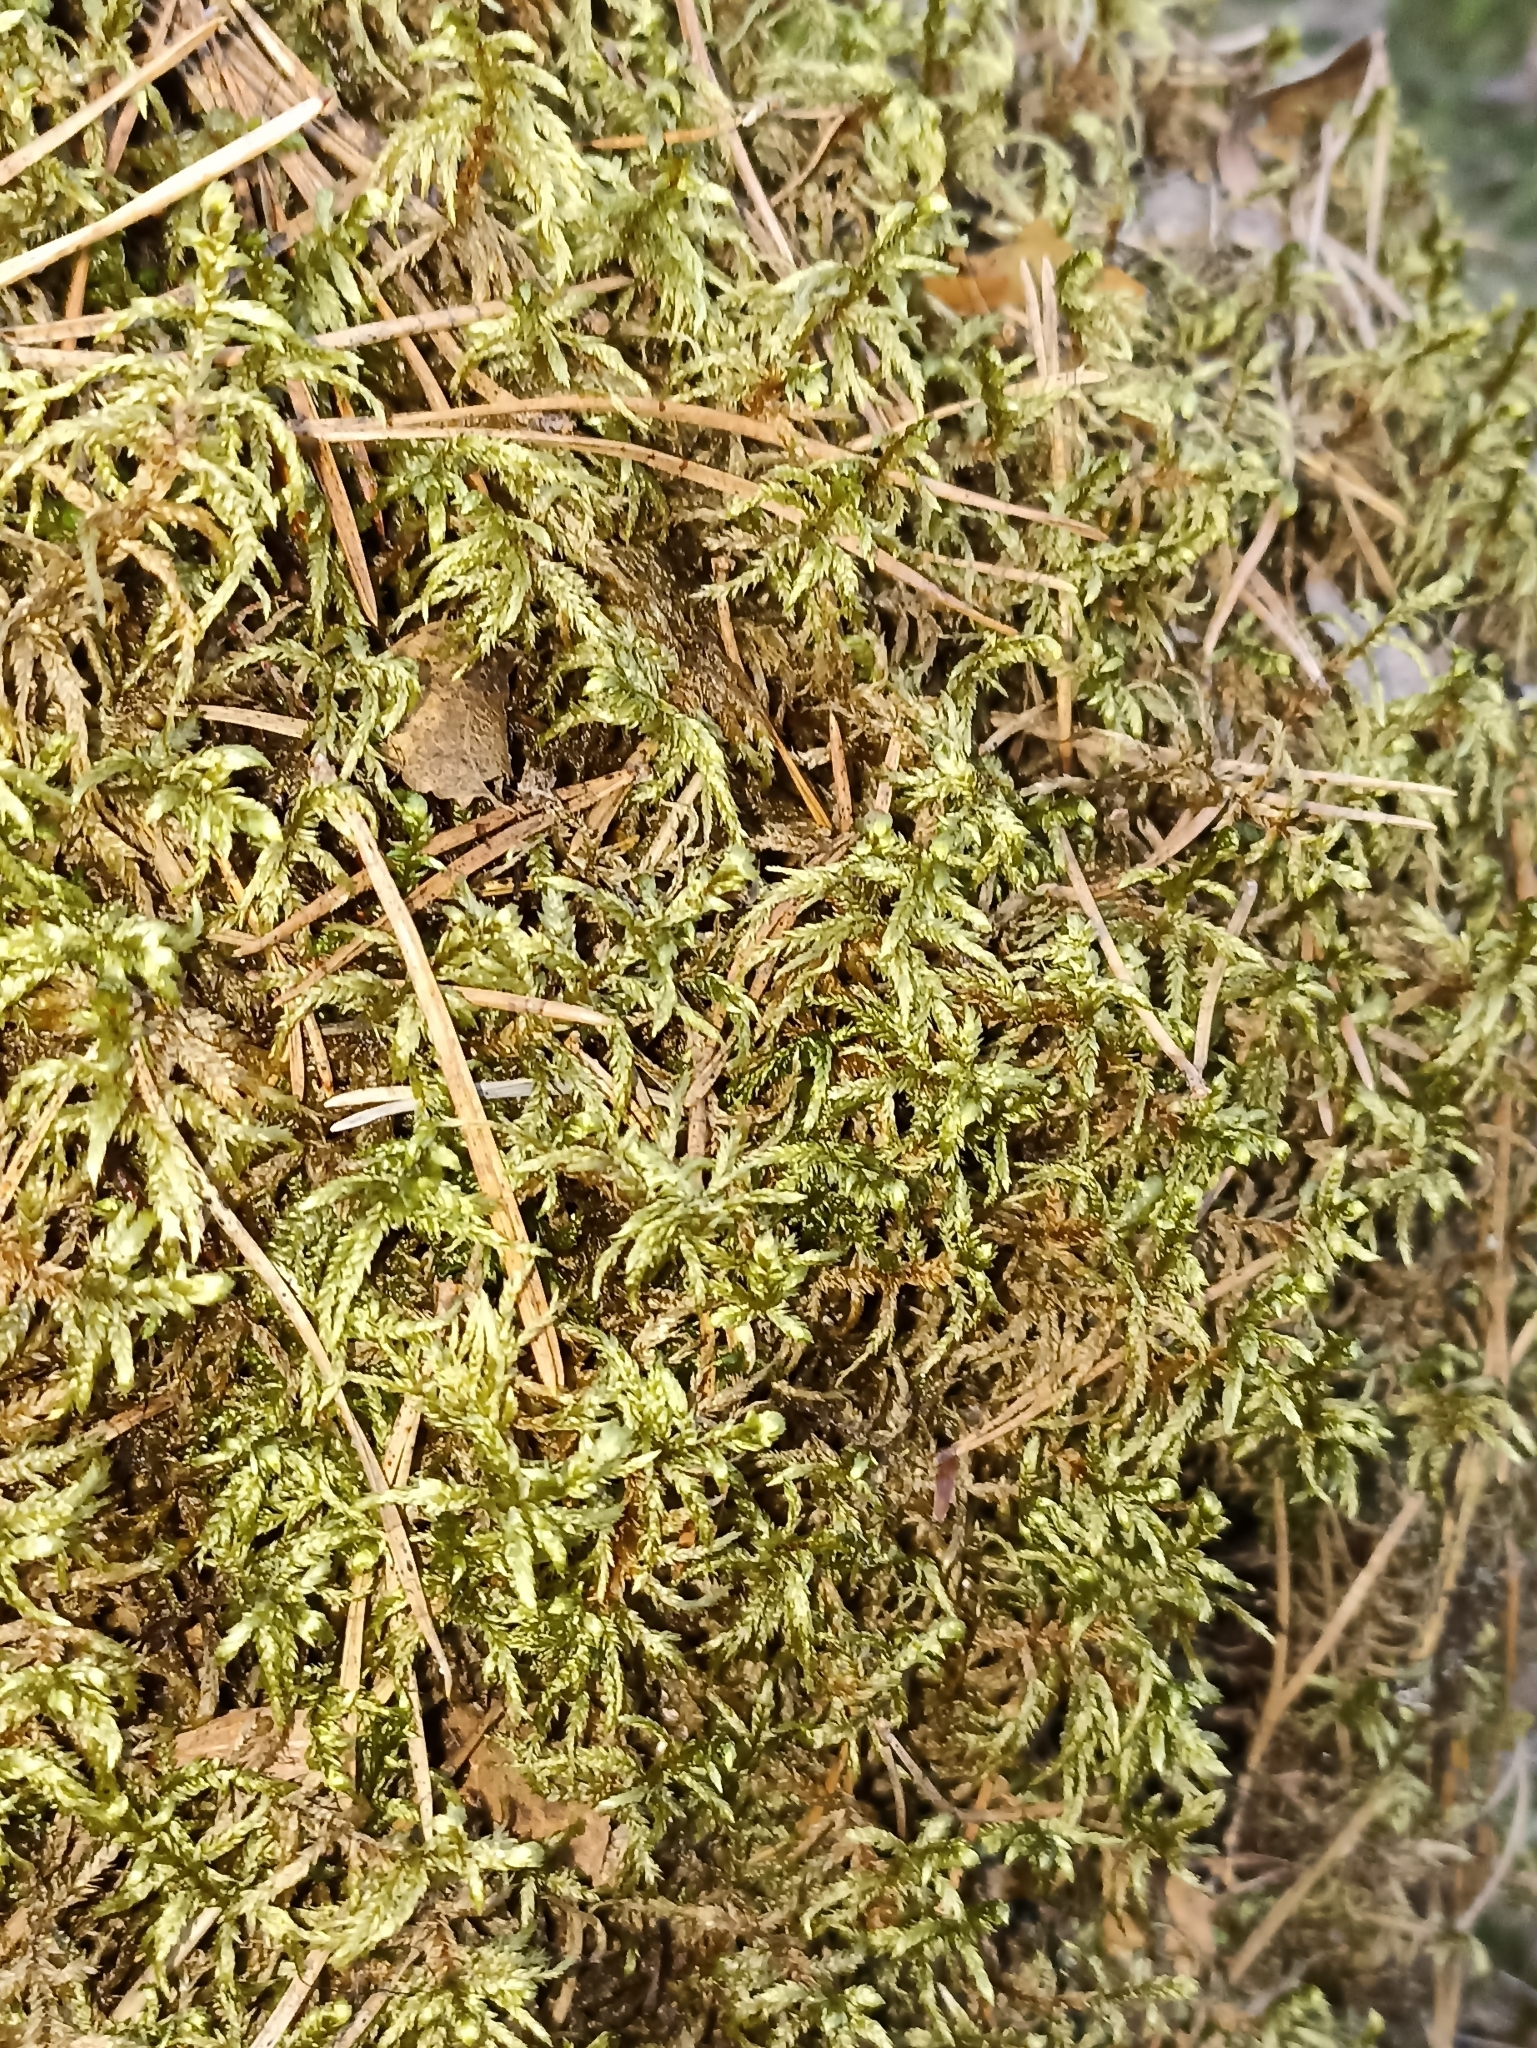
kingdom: Plantae
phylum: Bryophyta
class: Bryopsida
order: Hypnales
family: Hylocomiaceae
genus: Pleurozium
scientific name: Pleurozium schreberi
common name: Red-stemmed feather moss
